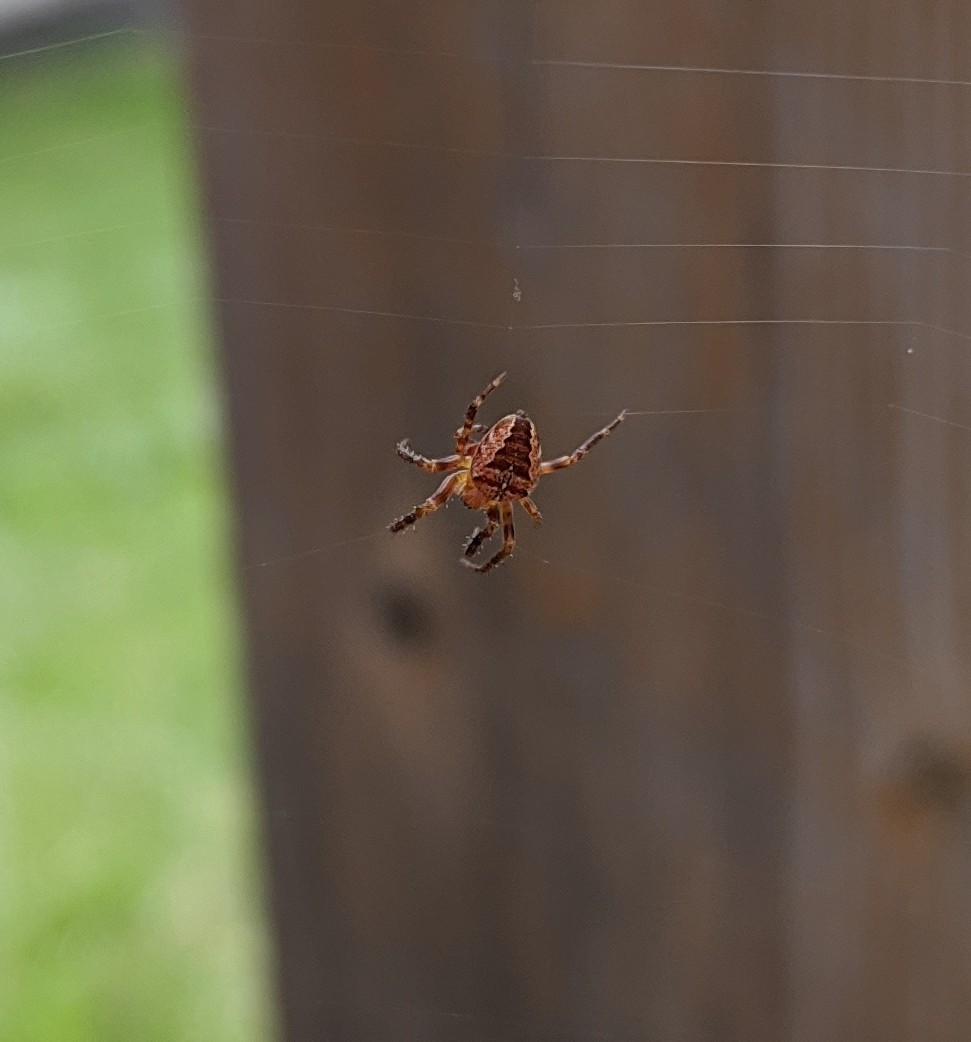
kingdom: Animalia
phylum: Arthropoda
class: Arachnida
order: Araneae
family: Araneidae
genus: Araneus
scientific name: Araneus diadematus
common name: Cross orbweaver
